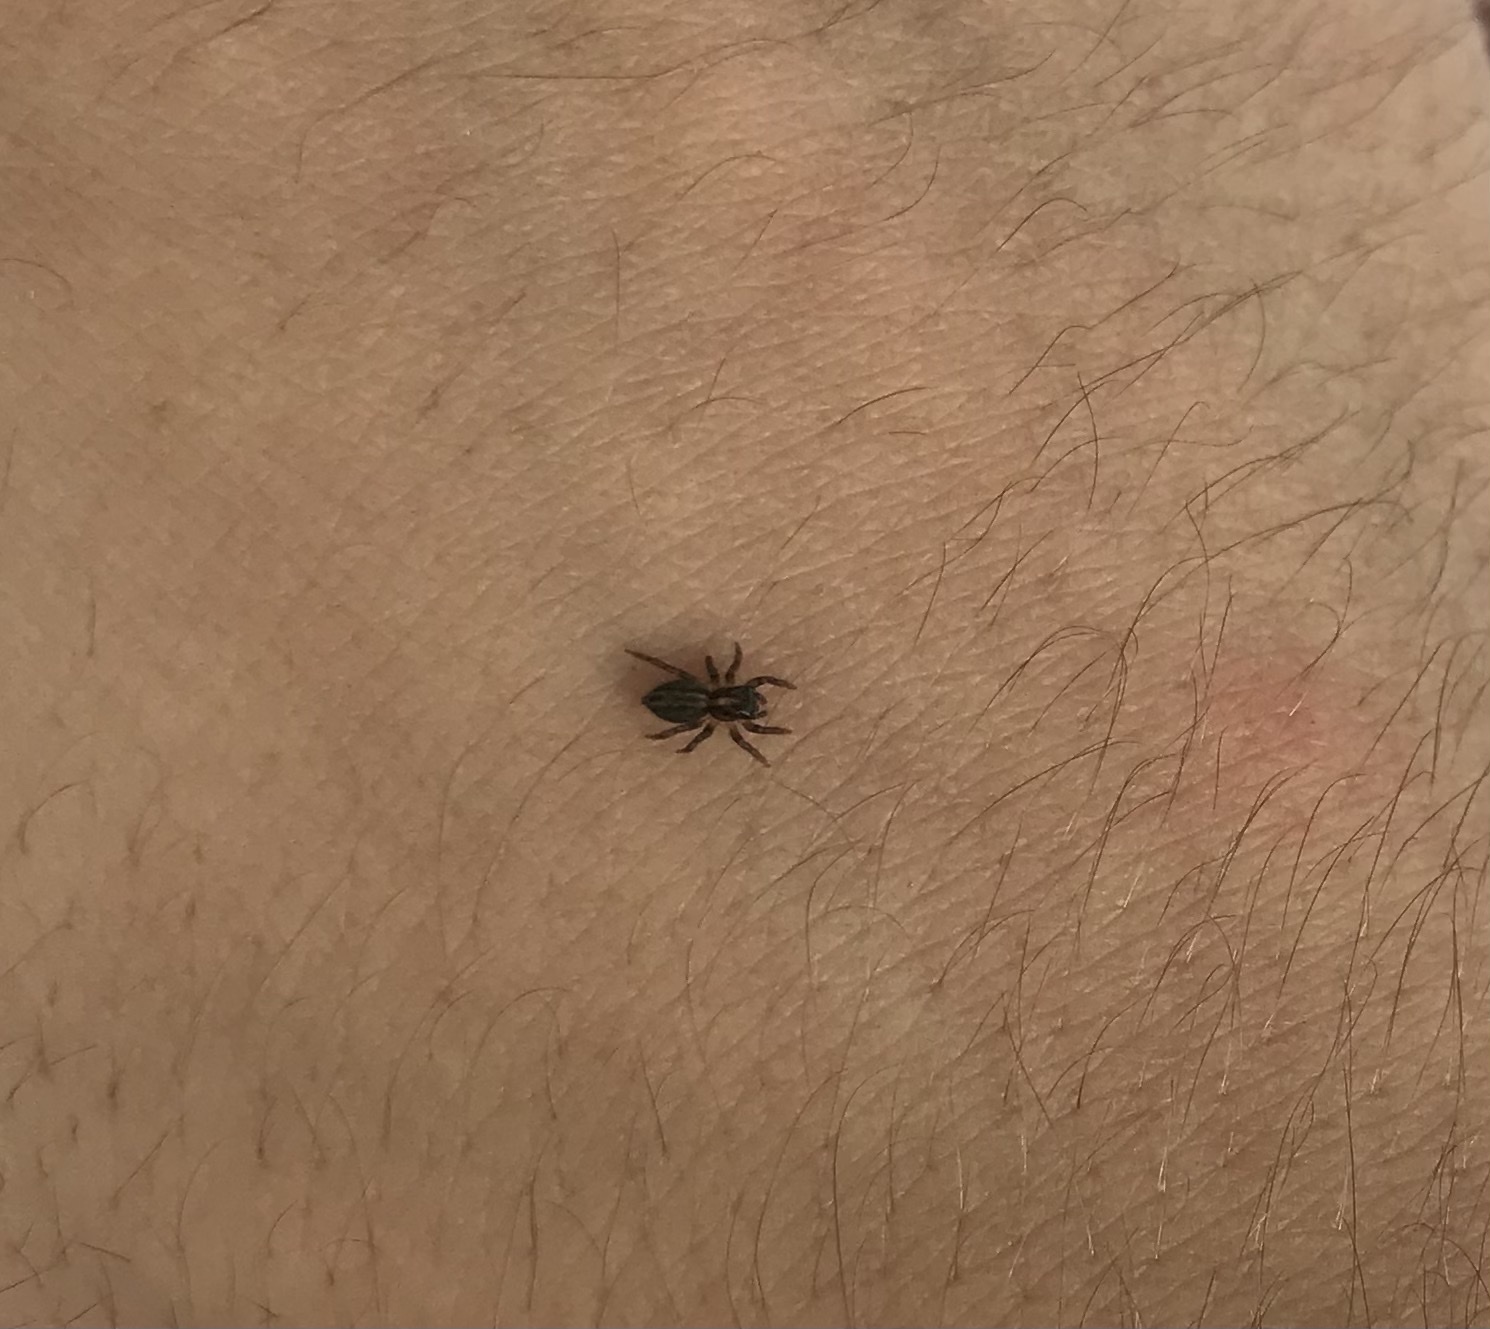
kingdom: Animalia
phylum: Arthropoda
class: Arachnida
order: Araneae
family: Salticidae
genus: Saitis
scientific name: Saitis tauricus
